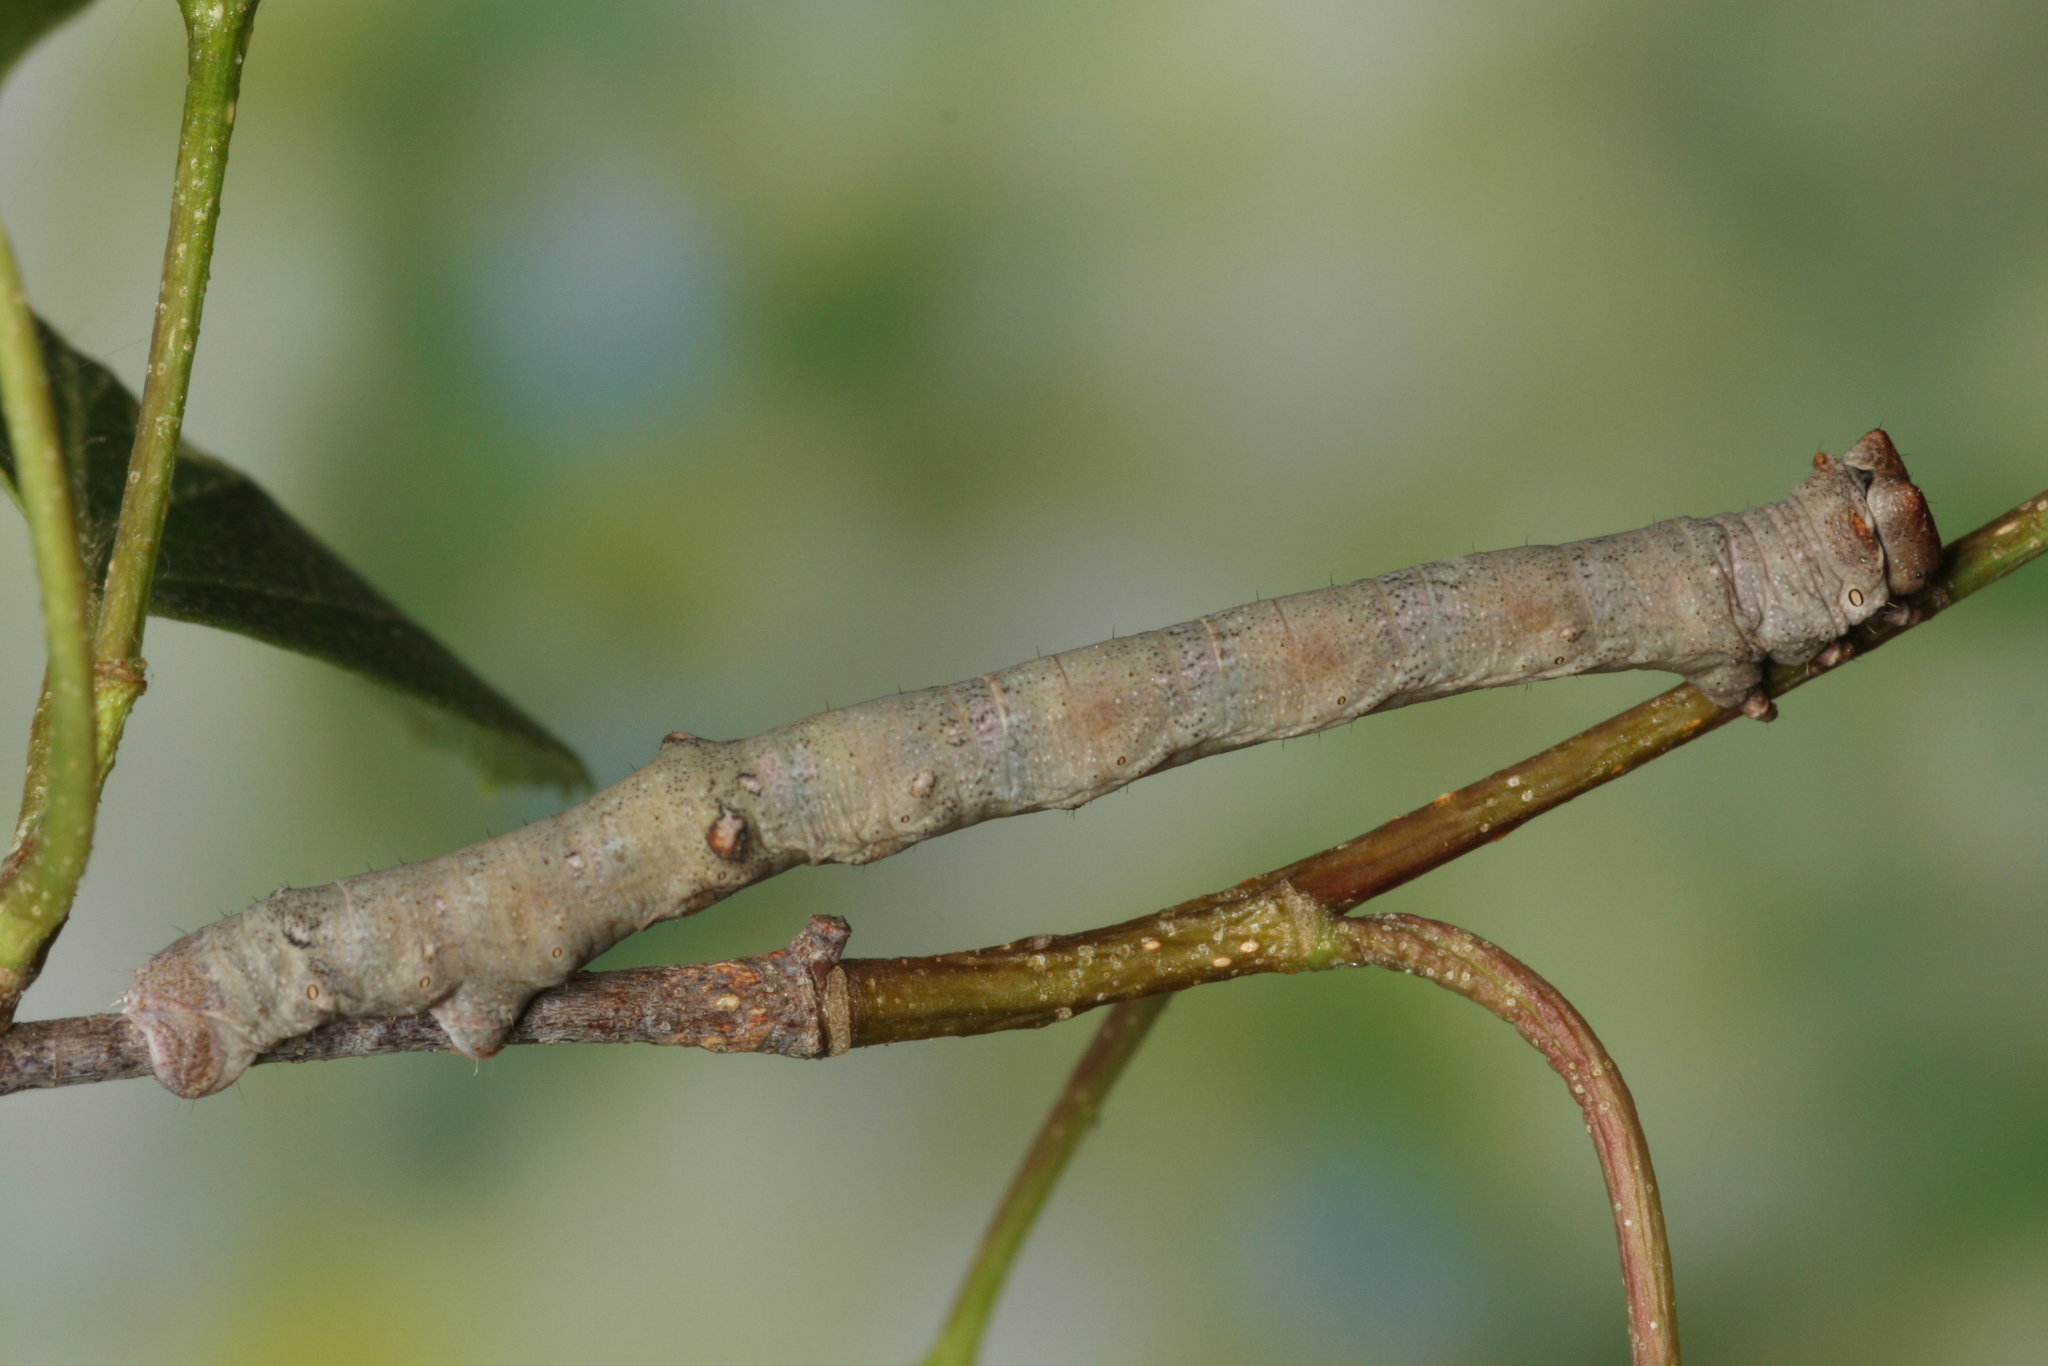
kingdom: Animalia
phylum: Arthropoda
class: Insecta
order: Lepidoptera
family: Geometridae
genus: Biston
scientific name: Biston strataria
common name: Oak beauty
